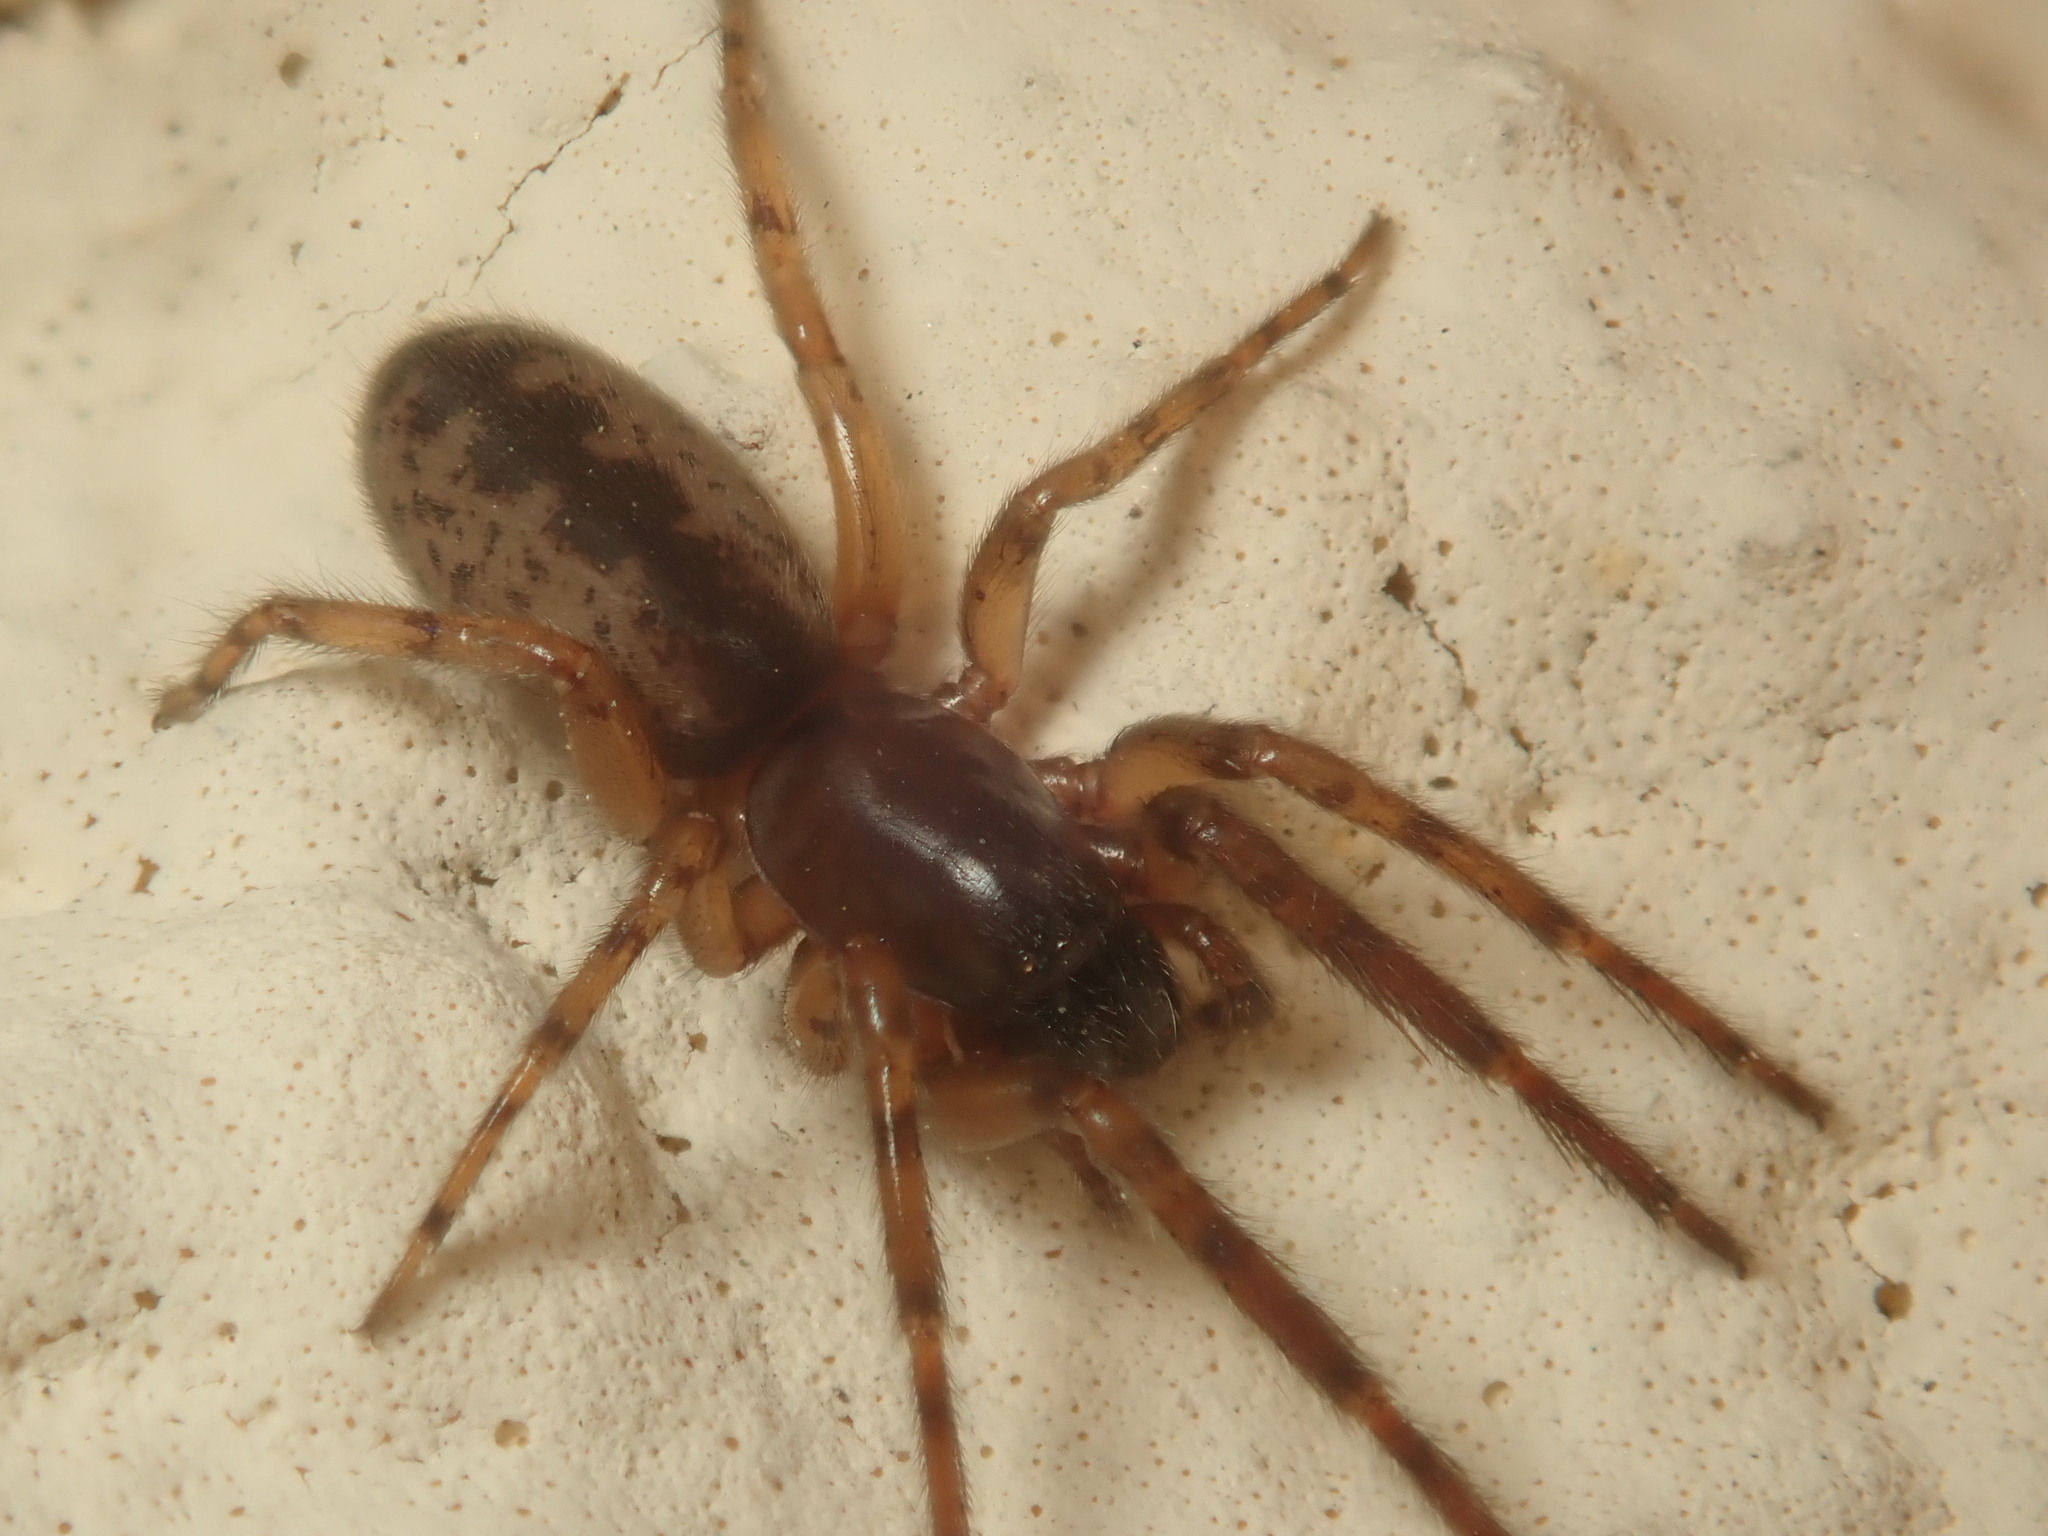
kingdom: Animalia
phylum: Arthropoda
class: Arachnida
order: Araneae
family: Segestriidae
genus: Segestria
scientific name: Segestria senoculata
